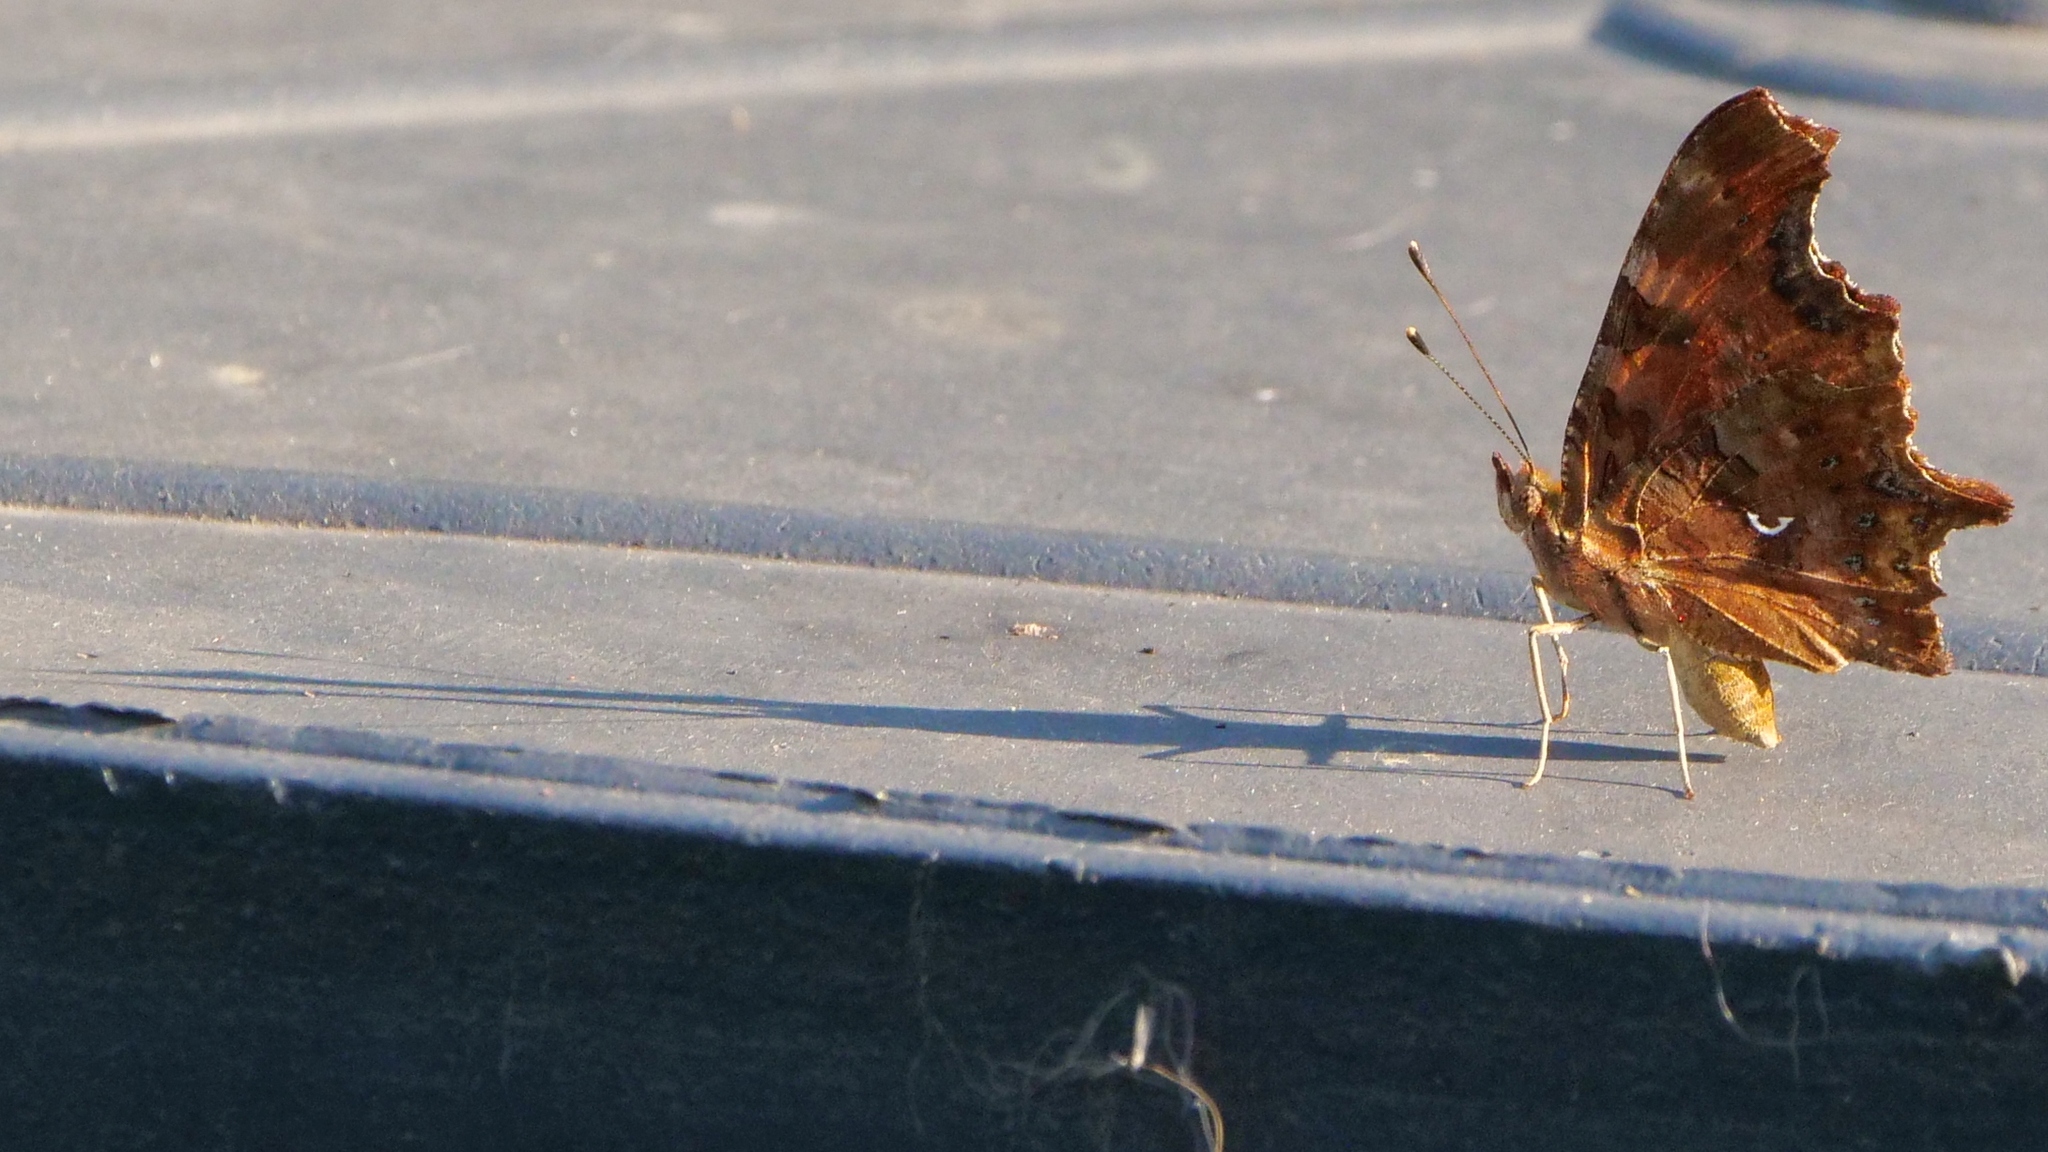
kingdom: Animalia
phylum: Arthropoda
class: Insecta
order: Lepidoptera
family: Nymphalidae
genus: Polygonia
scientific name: Polygonia c-album
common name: Comma
